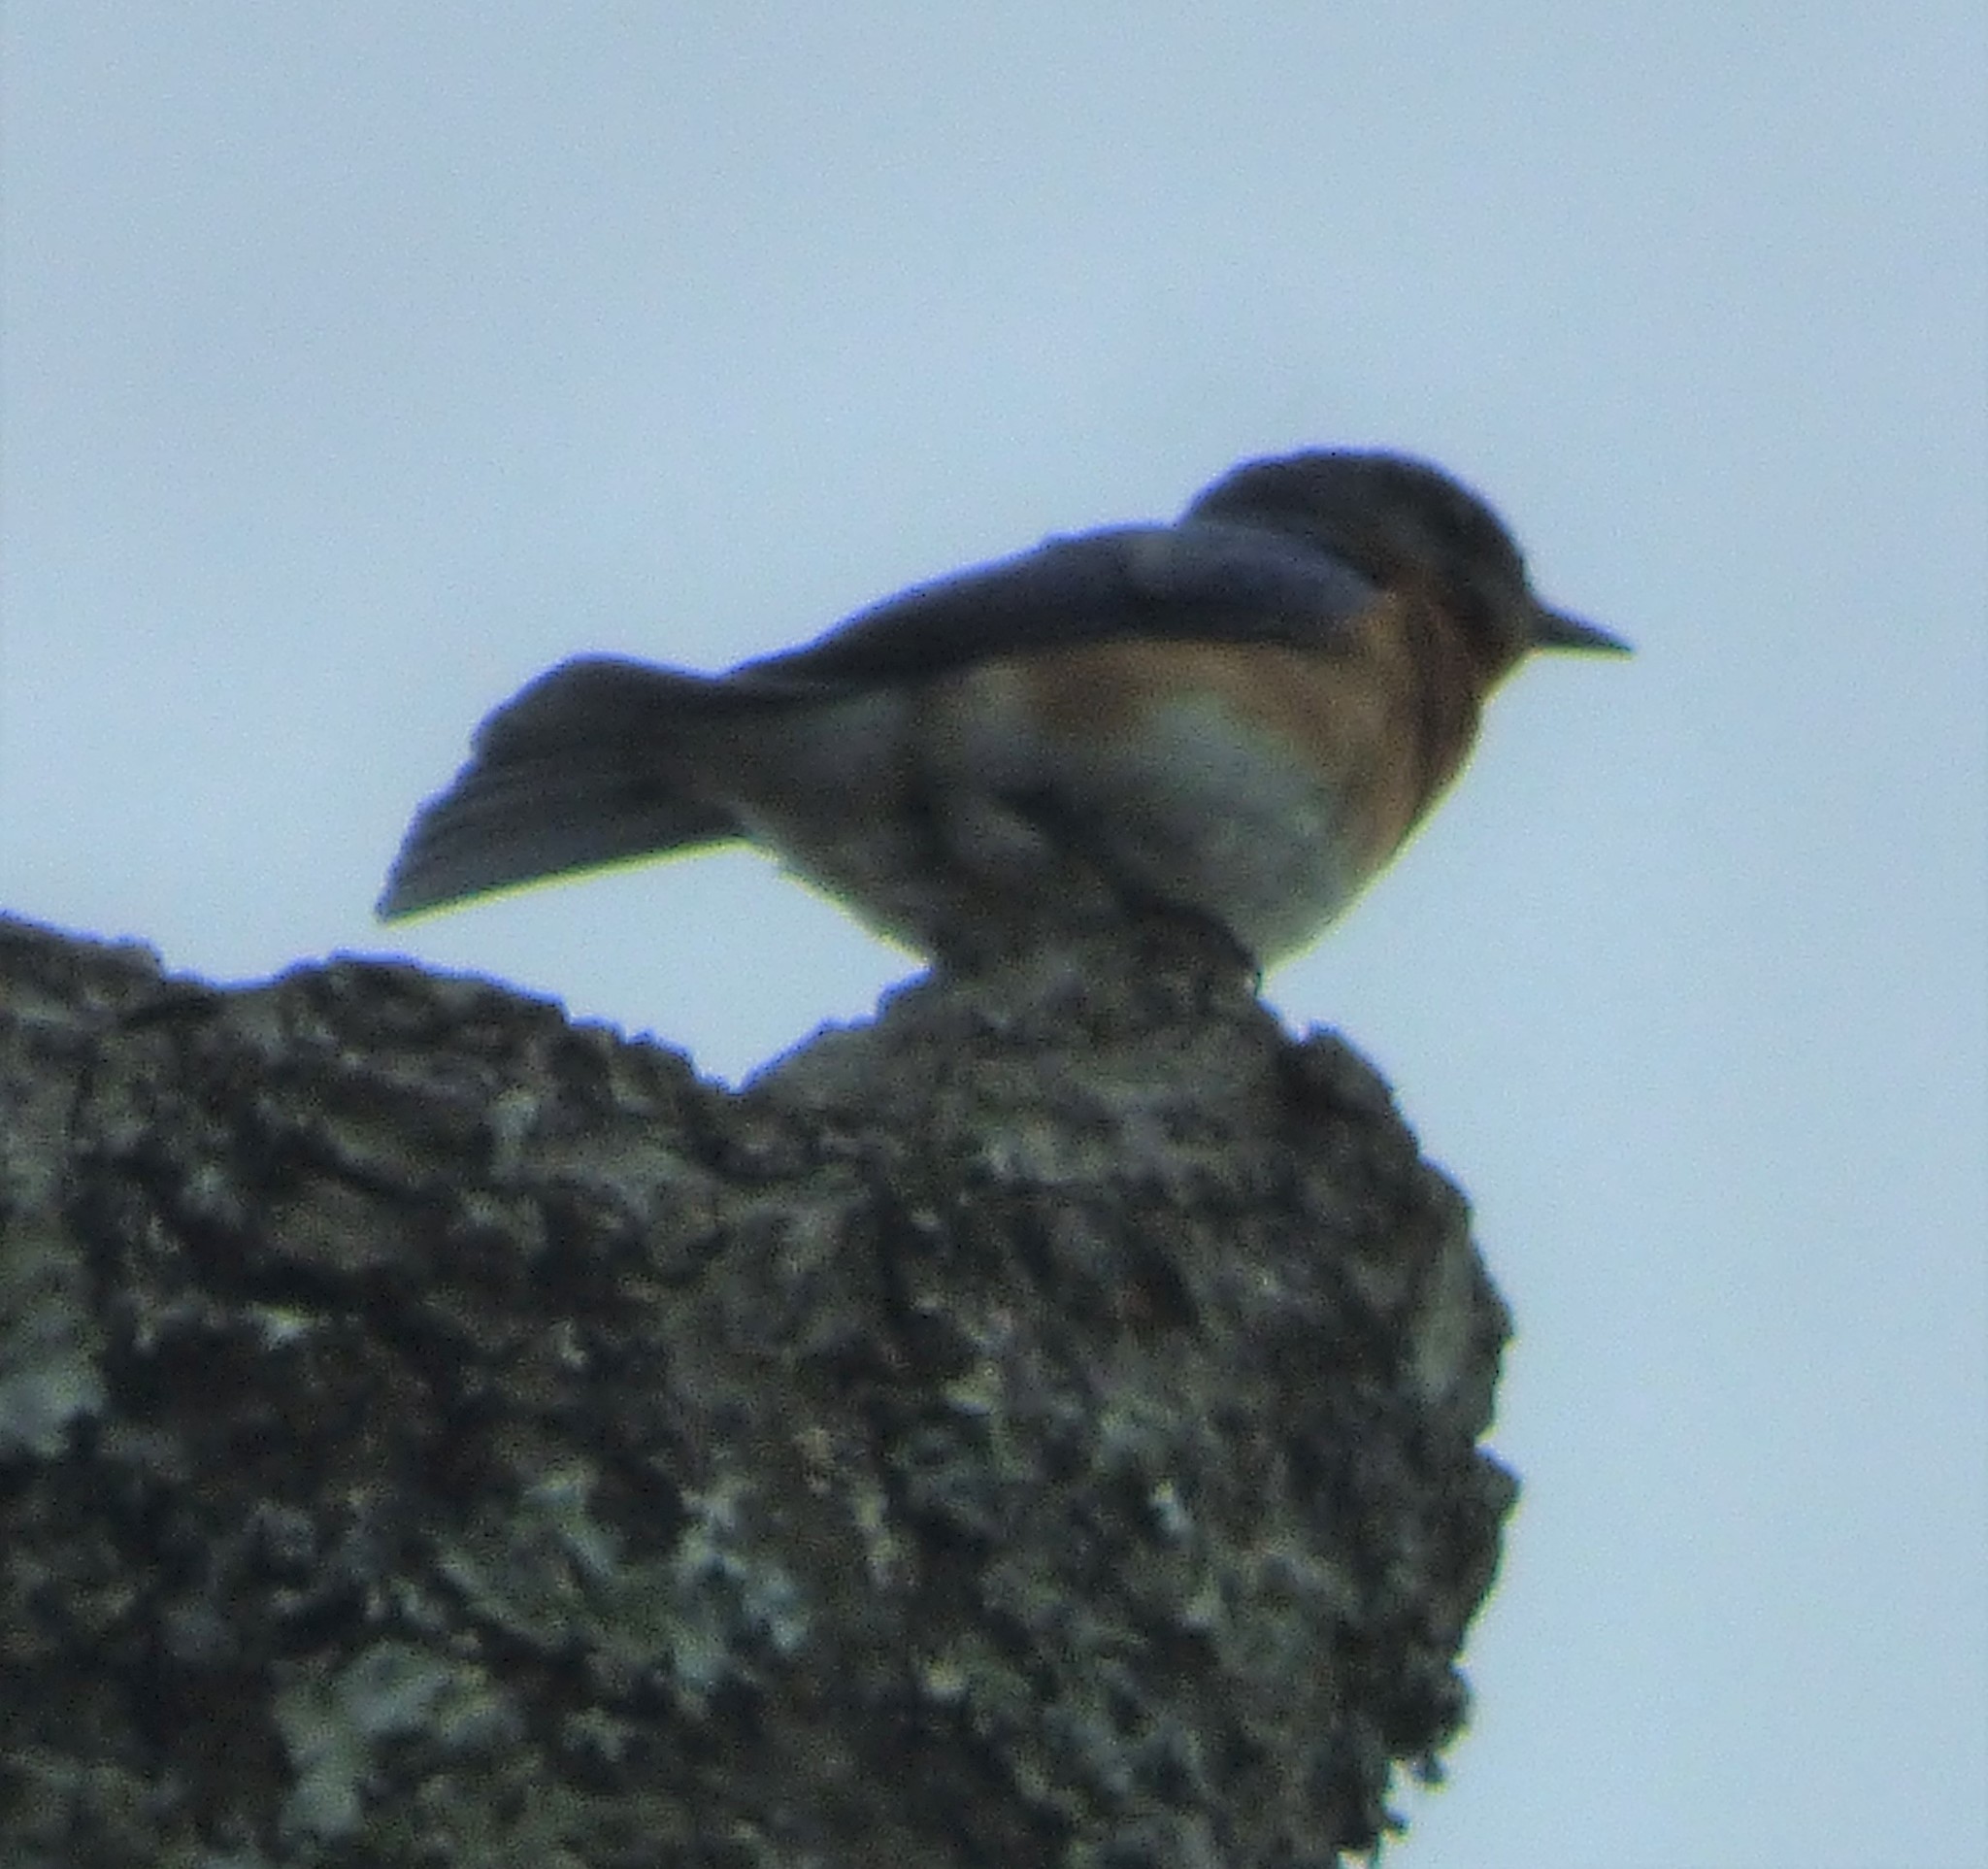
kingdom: Animalia
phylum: Chordata
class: Aves
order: Passeriformes
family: Turdidae
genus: Sialia
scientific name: Sialia sialis
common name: Eastern bluebird
